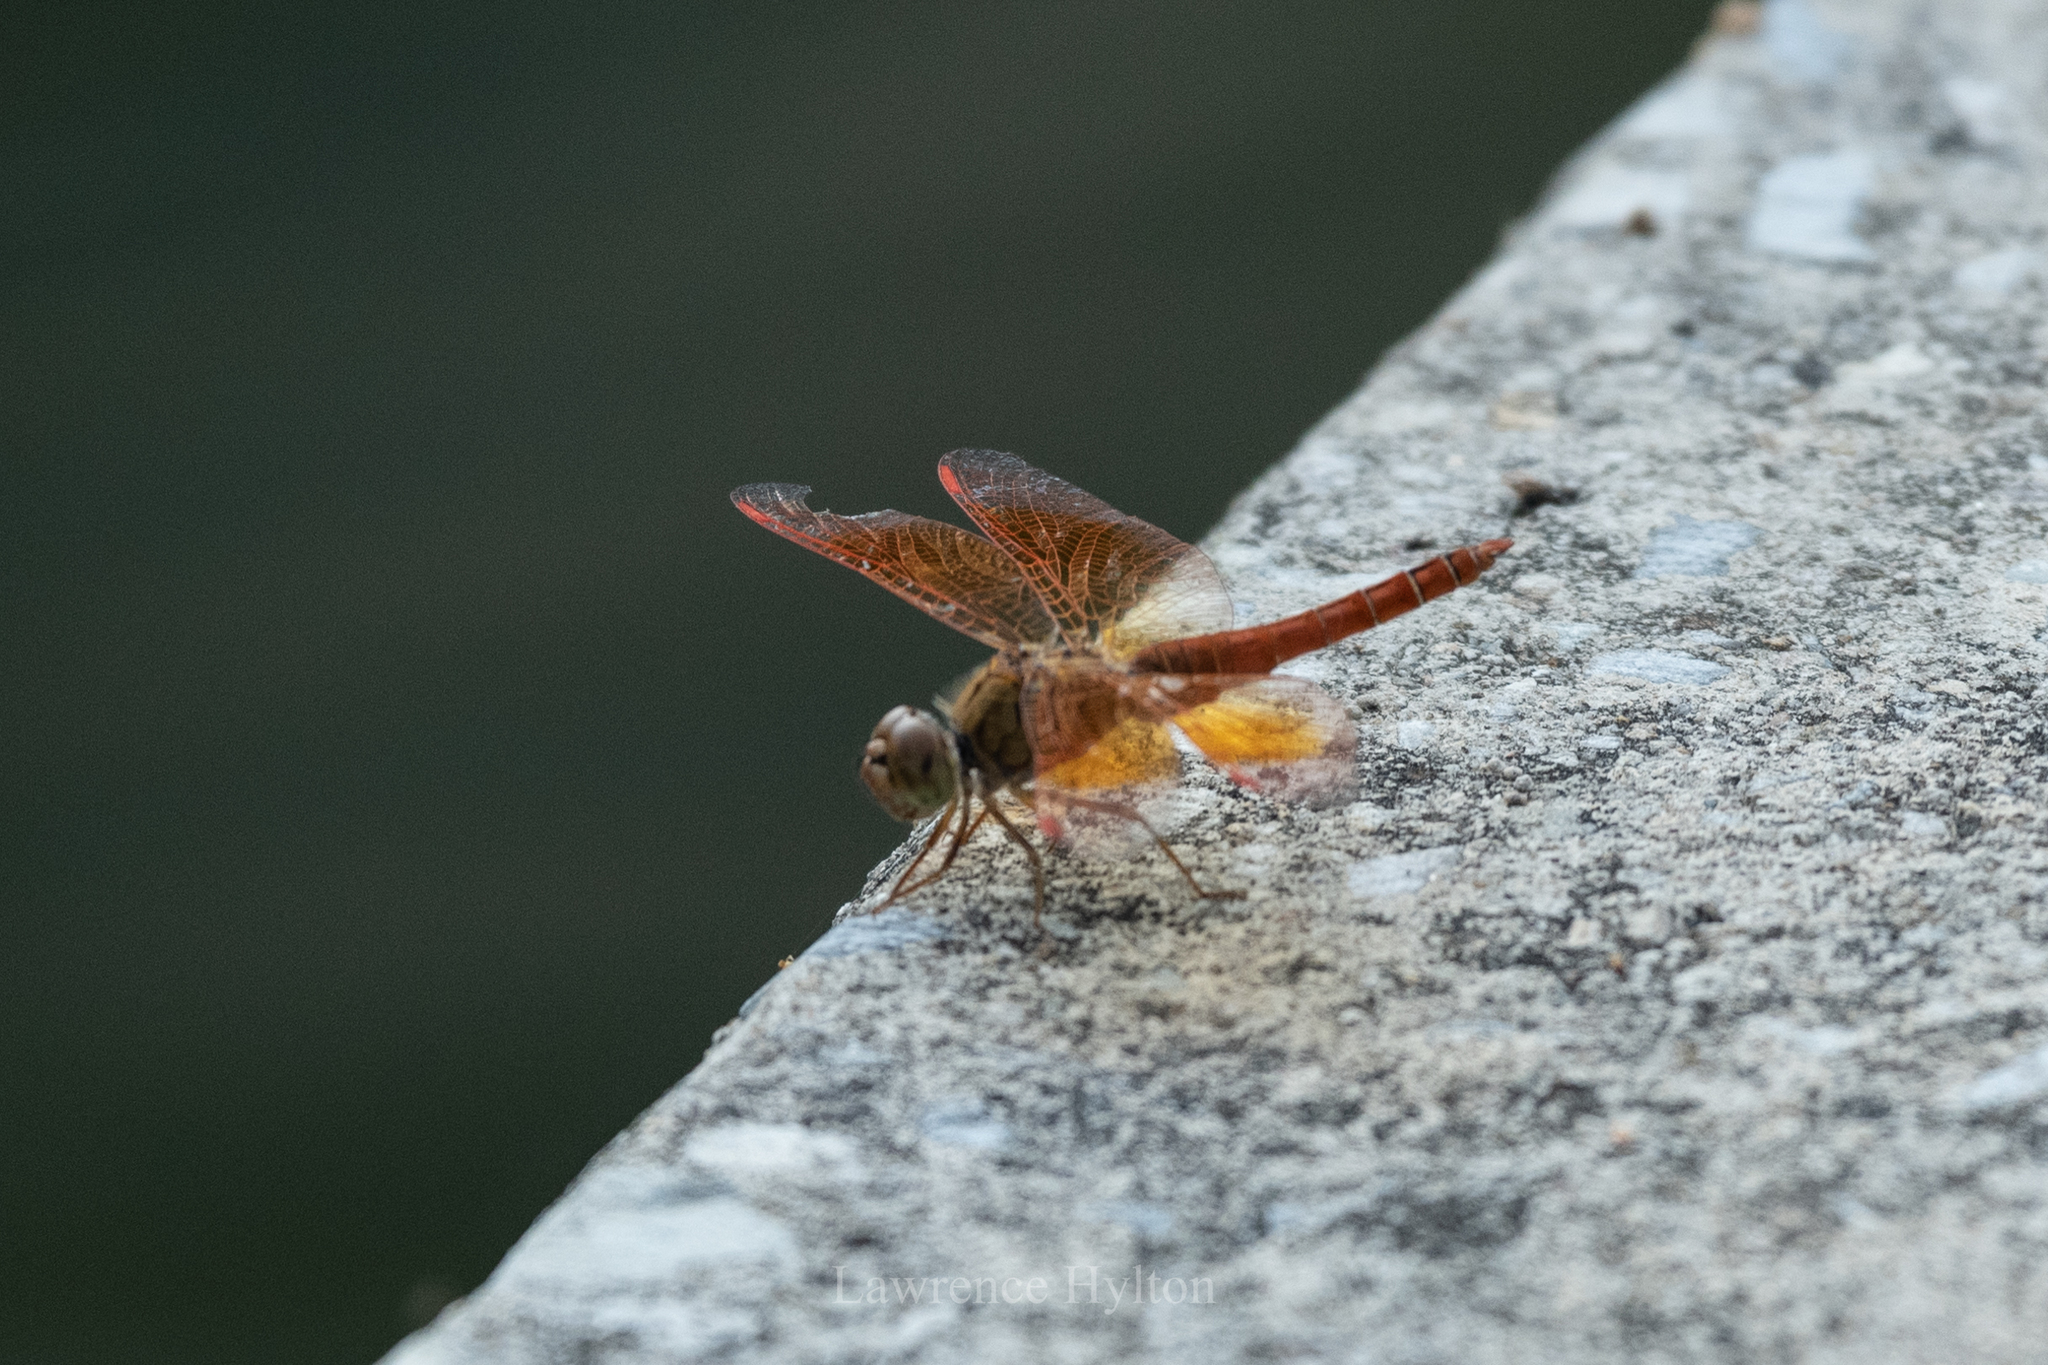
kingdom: Animalia
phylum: Arthropoda
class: Insecta
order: Odonata
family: Libellulidae
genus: Brachythemis
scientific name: Brachythemis contaminata
